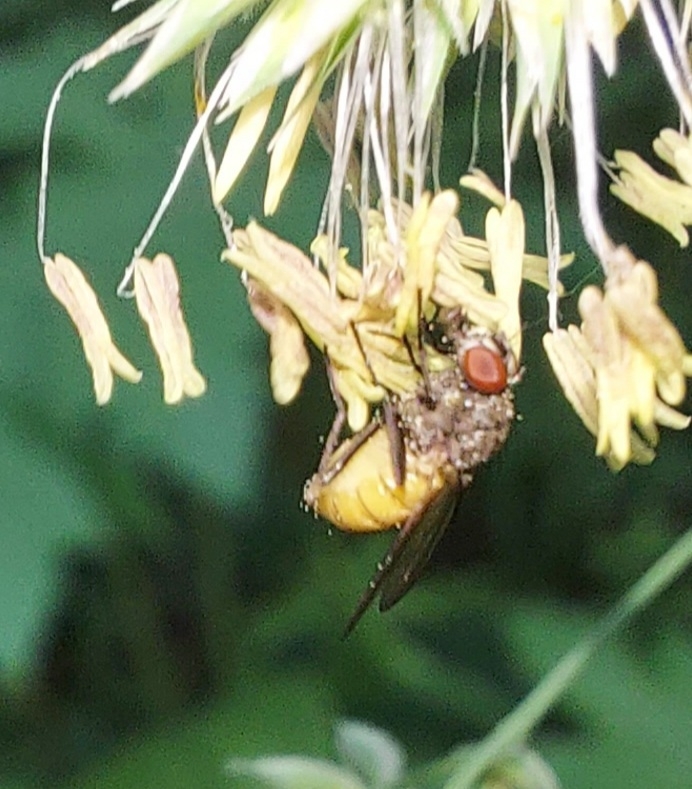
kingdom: Animalia
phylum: Arthropoda
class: Insecta
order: Diptera
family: Muscidae
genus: Thricops
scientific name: Thricops semicinereus
